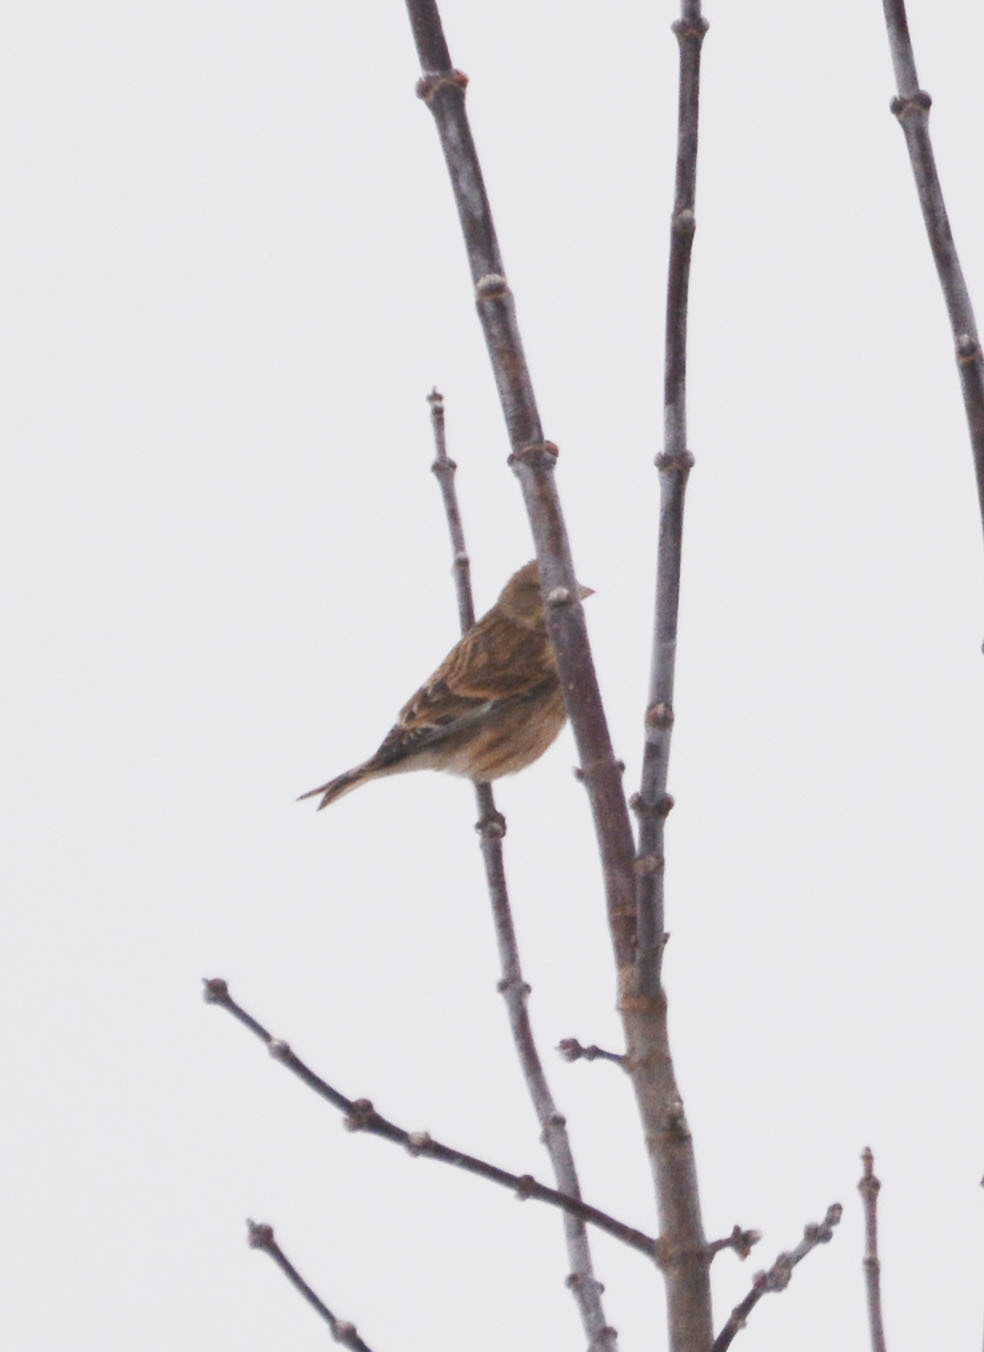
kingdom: Animalia
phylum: Chordata
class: Aves
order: Passeriformes
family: Fringillidae
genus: Linaria
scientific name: Linaria cannabina
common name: Common linnet
